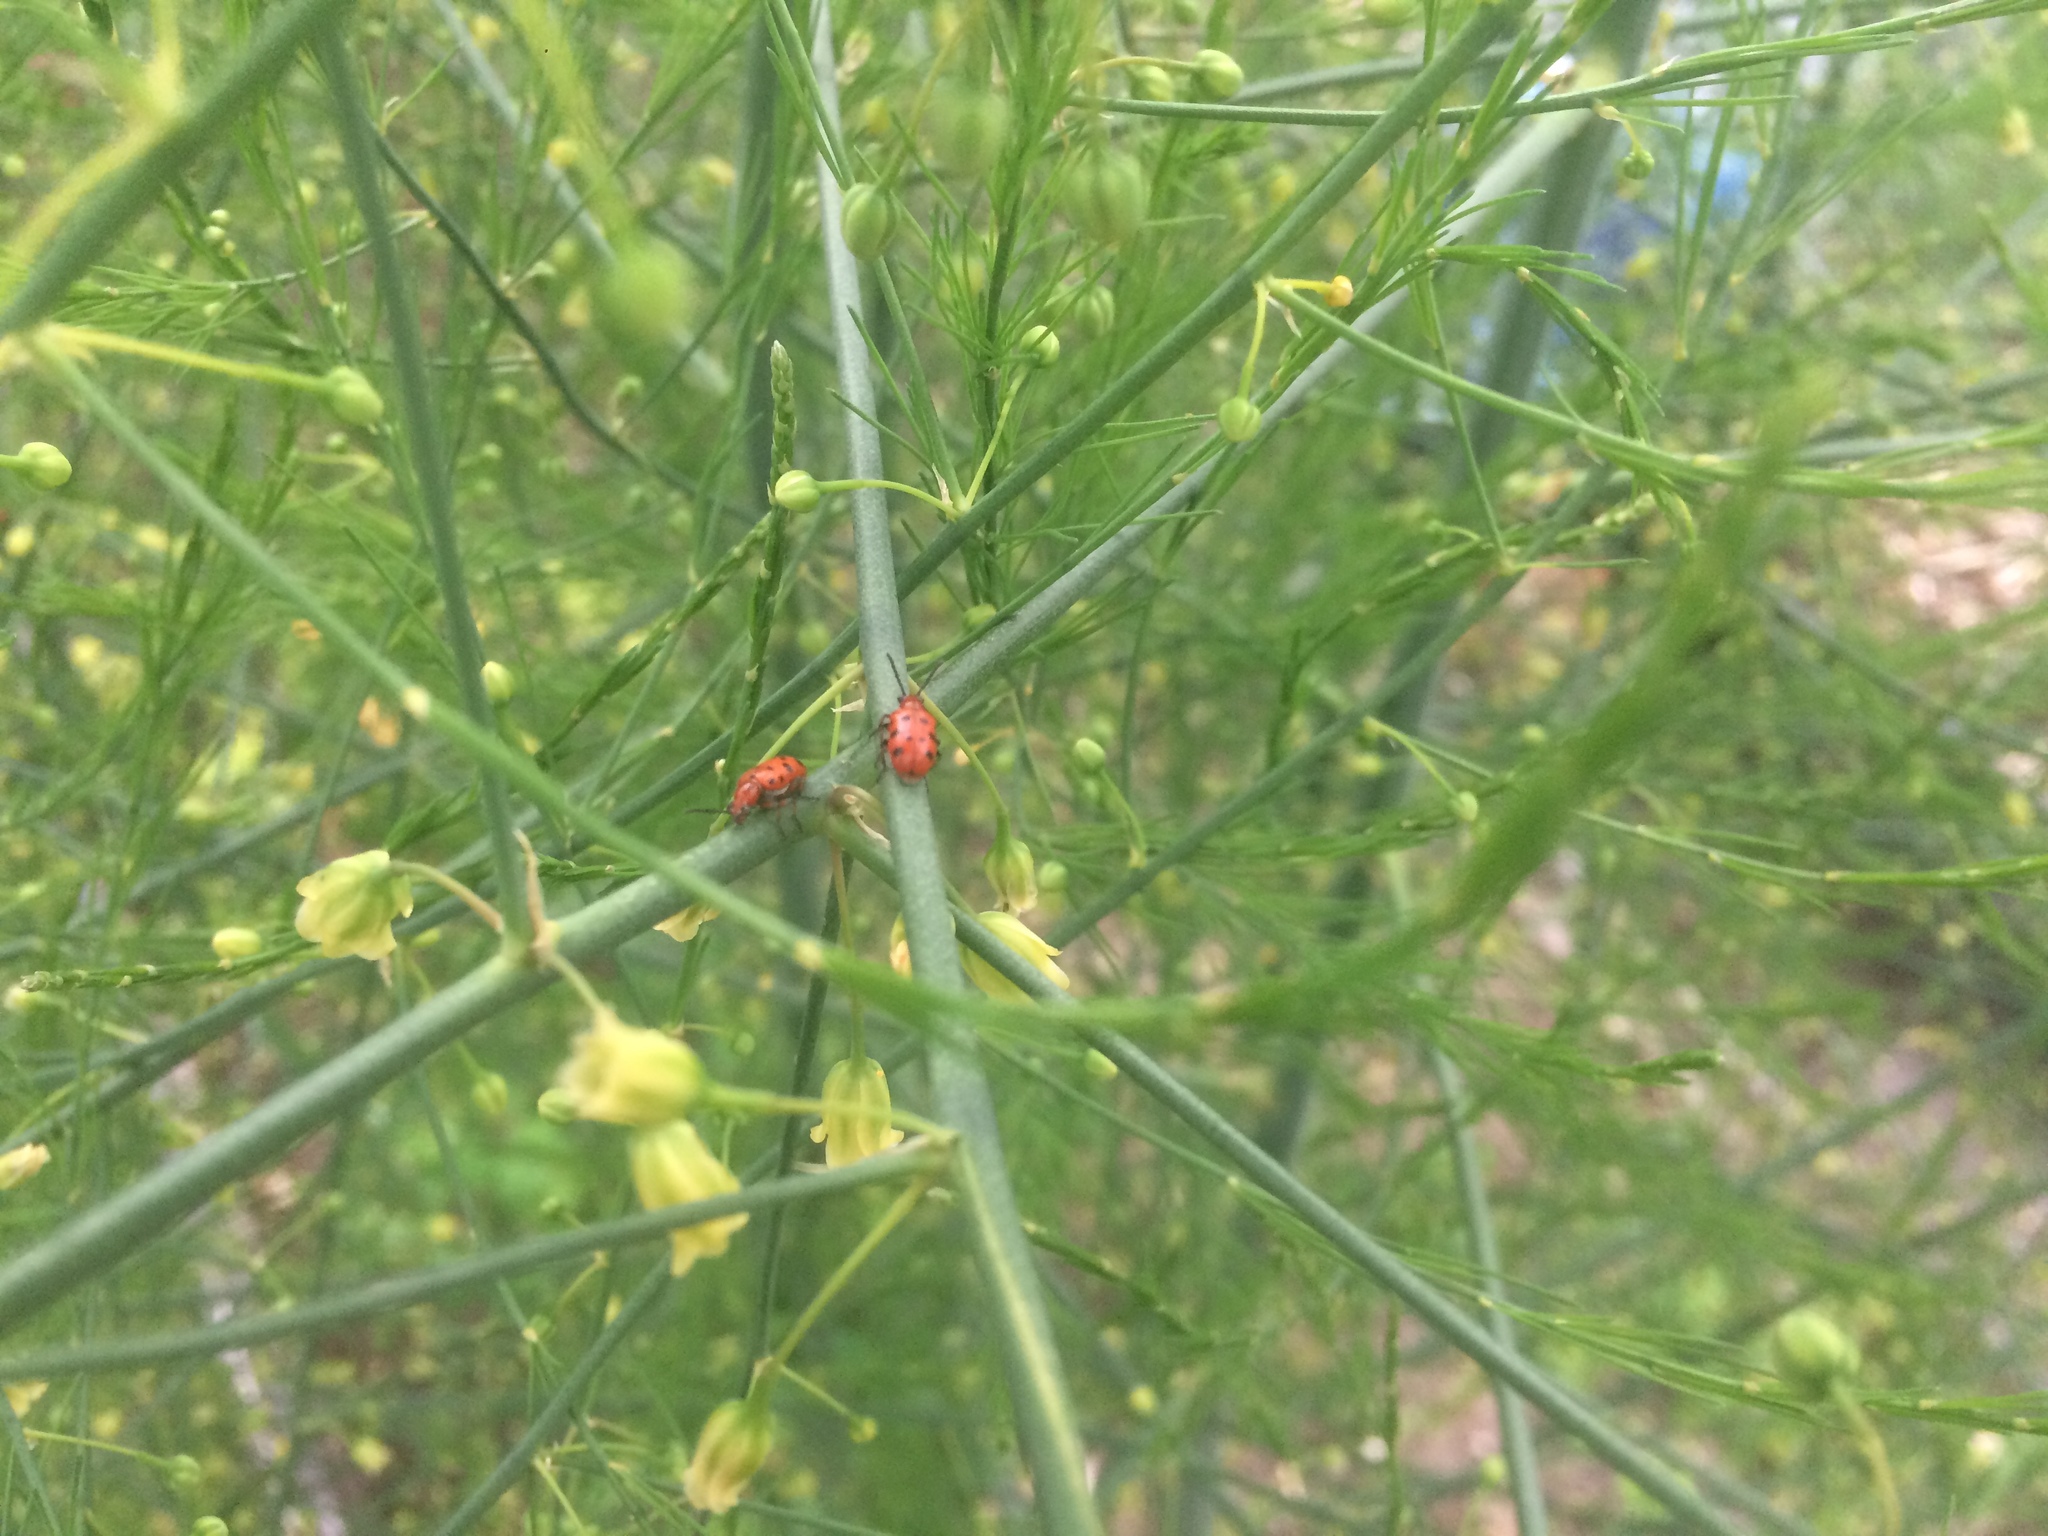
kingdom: Animalia
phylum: Arthropoda
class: Insecta
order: Coleoptera
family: Chrysomelidae
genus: Crioceris
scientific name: Crioceris duodecimpunctata
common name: Twelve-spotted asparagus beetle
